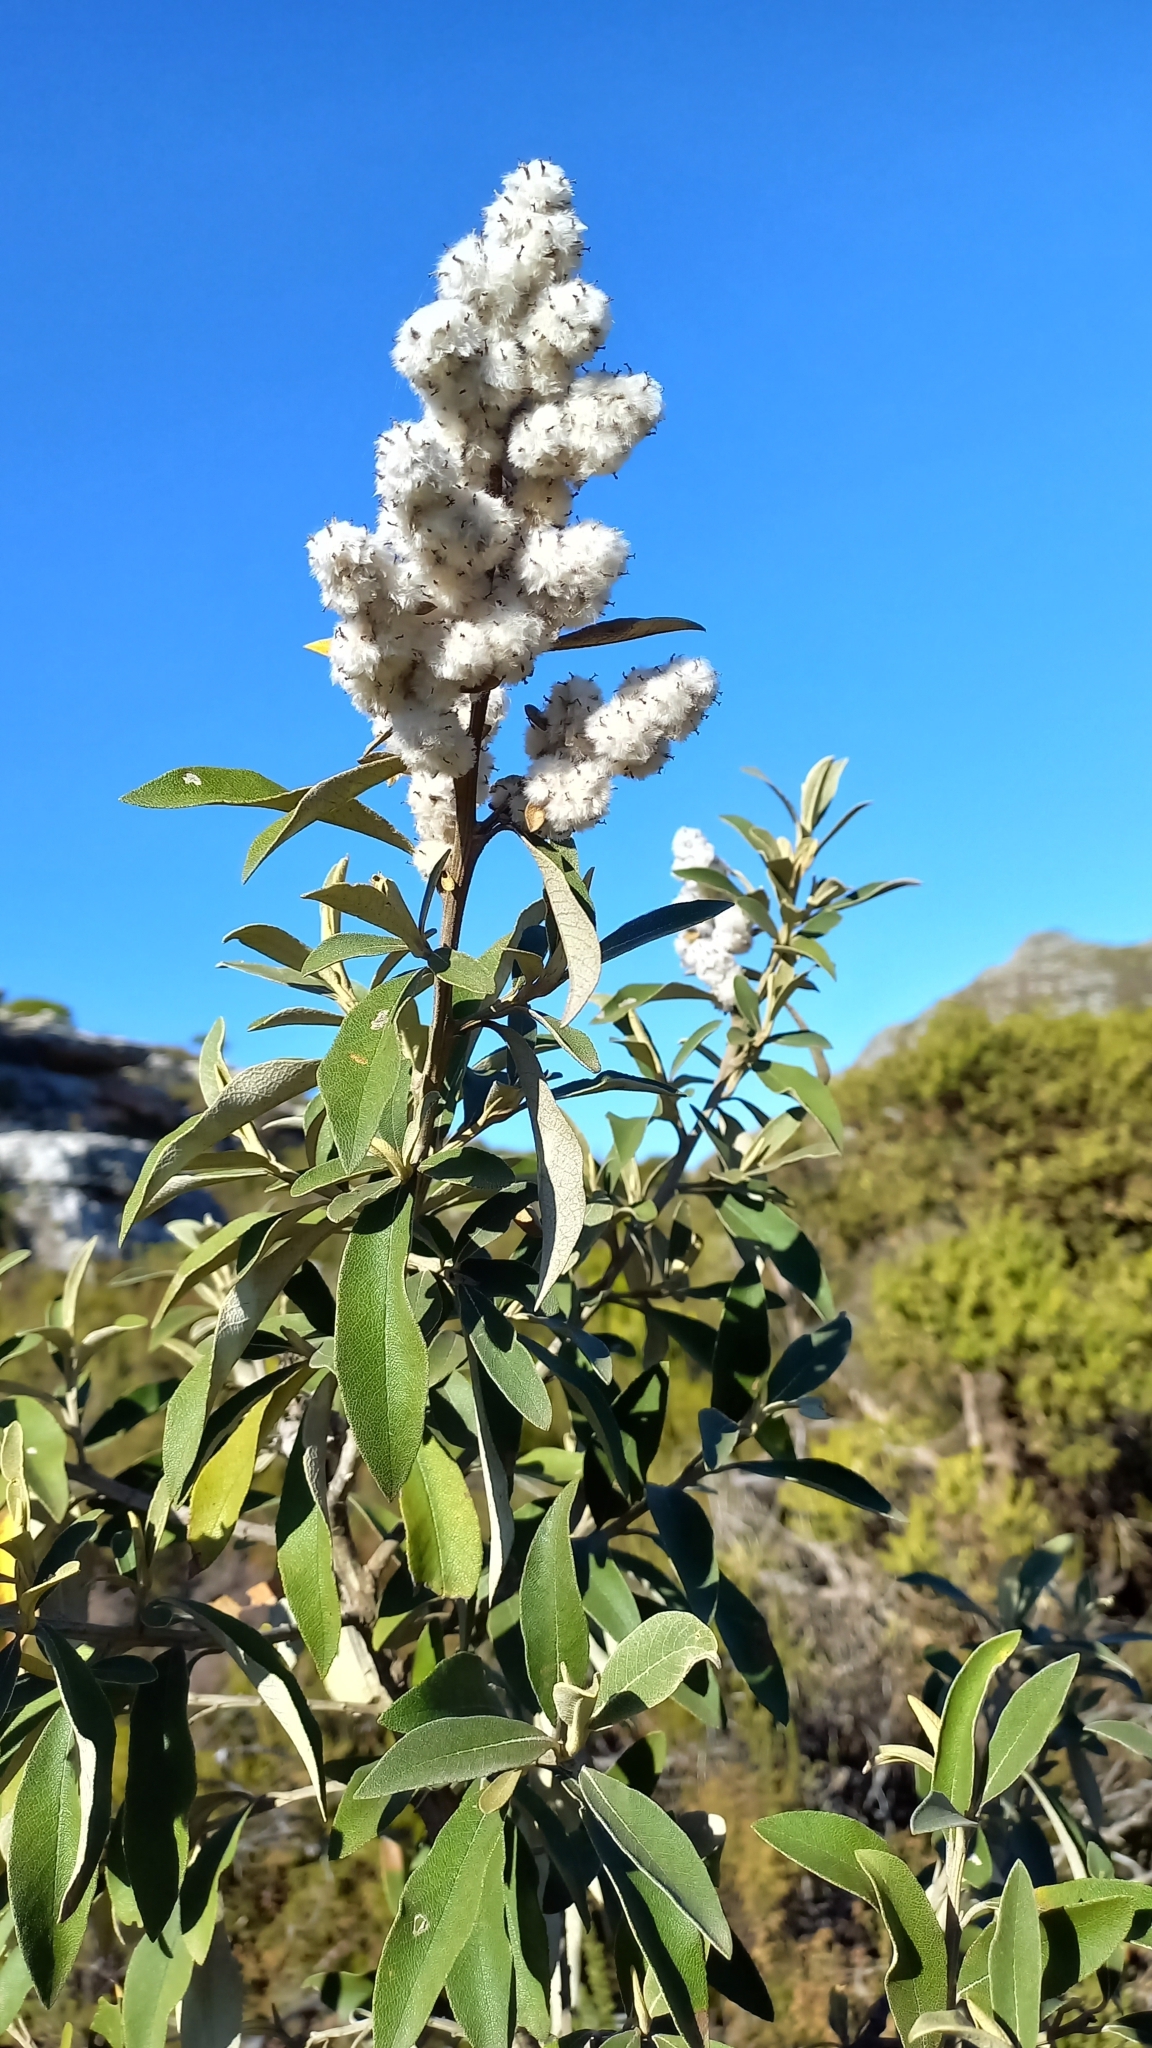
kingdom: Plantae
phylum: Tracheophyta
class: Magnoliopsida
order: Asterales
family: Asteraceae
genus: Tarchonanthus
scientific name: Tarchonanthus littoralis
